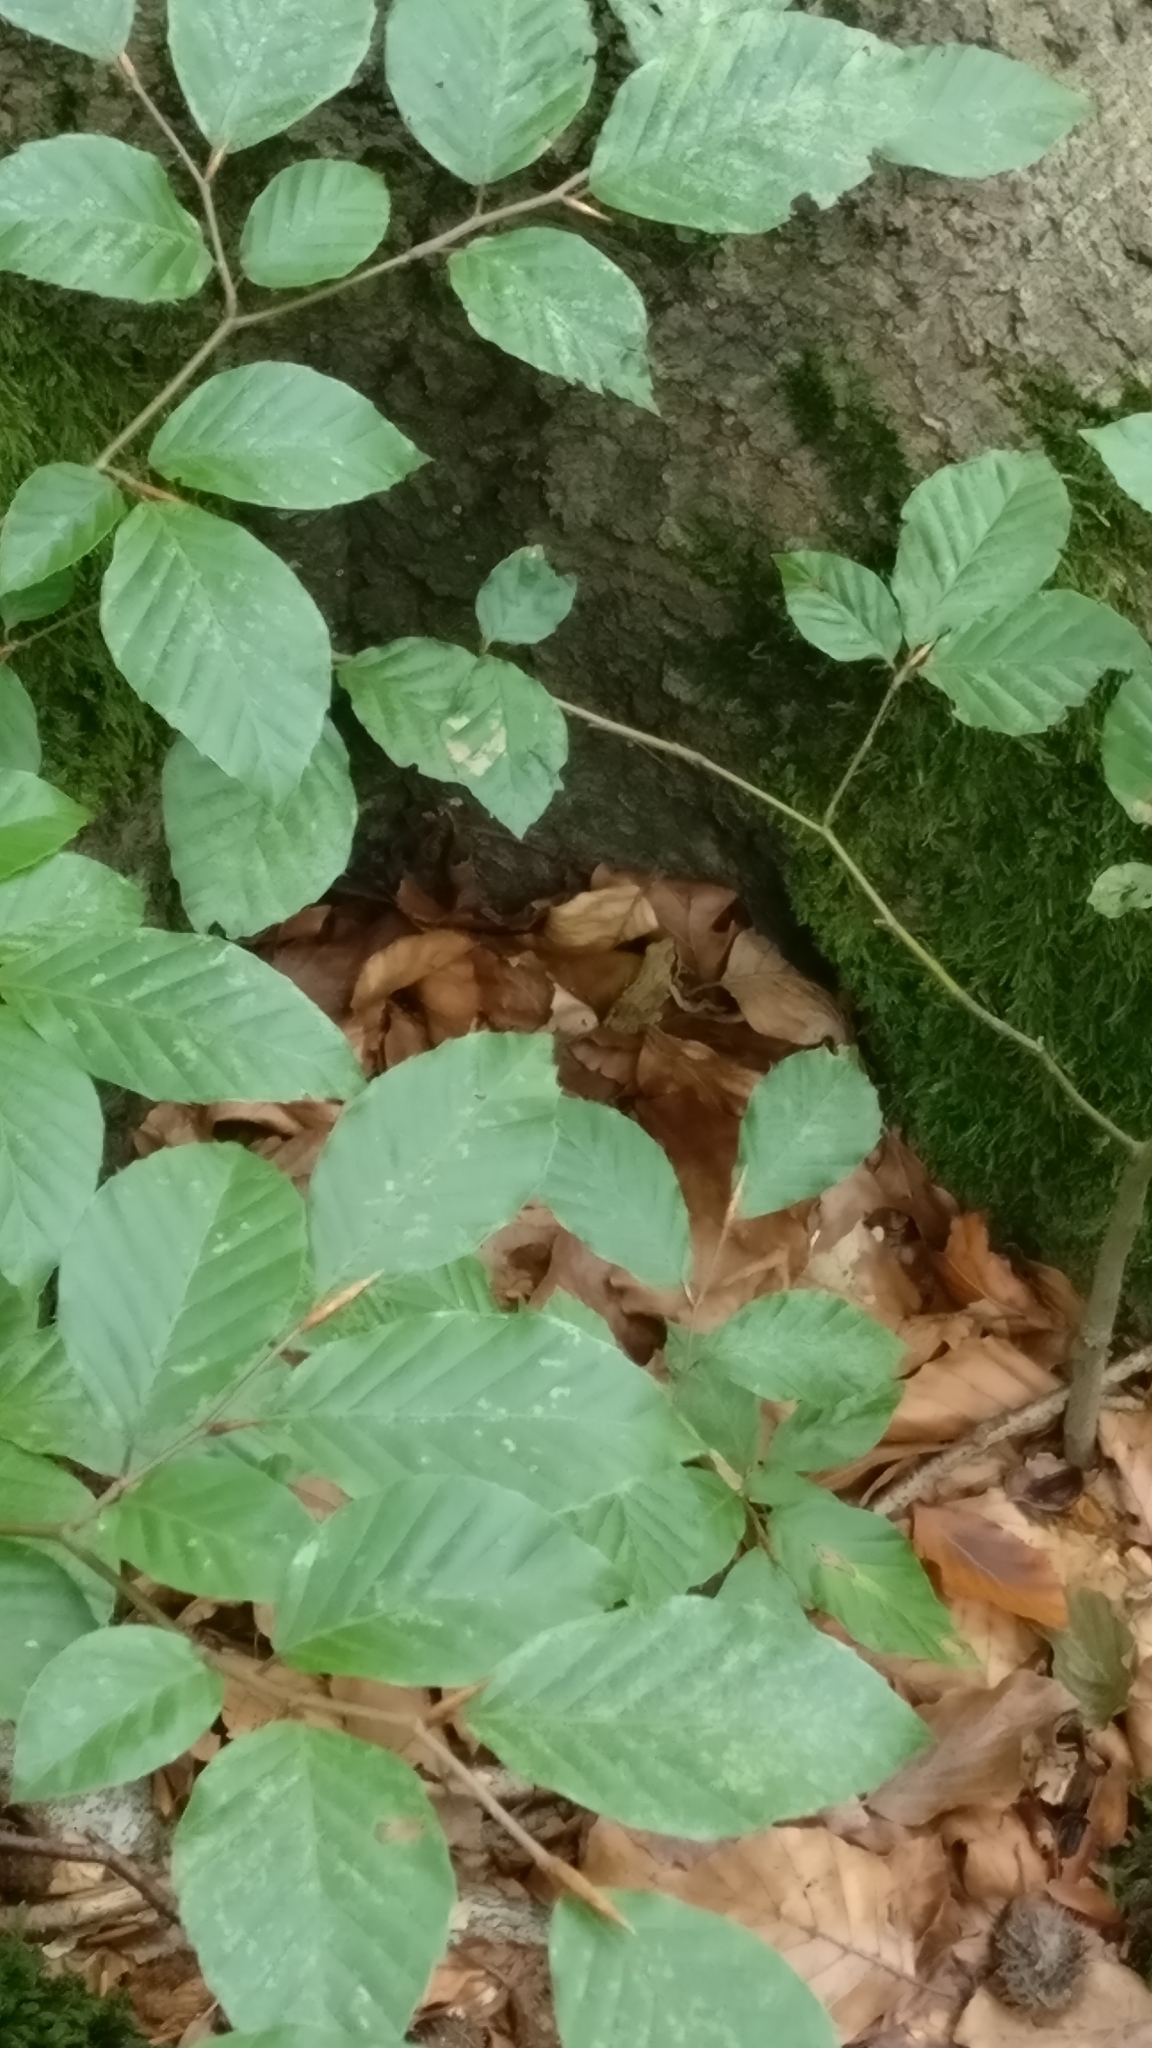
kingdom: Animalia
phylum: Chordata
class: Amphibia
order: Anura
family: Ranidae
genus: Rana
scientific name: Rana temporaria
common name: Common frog
